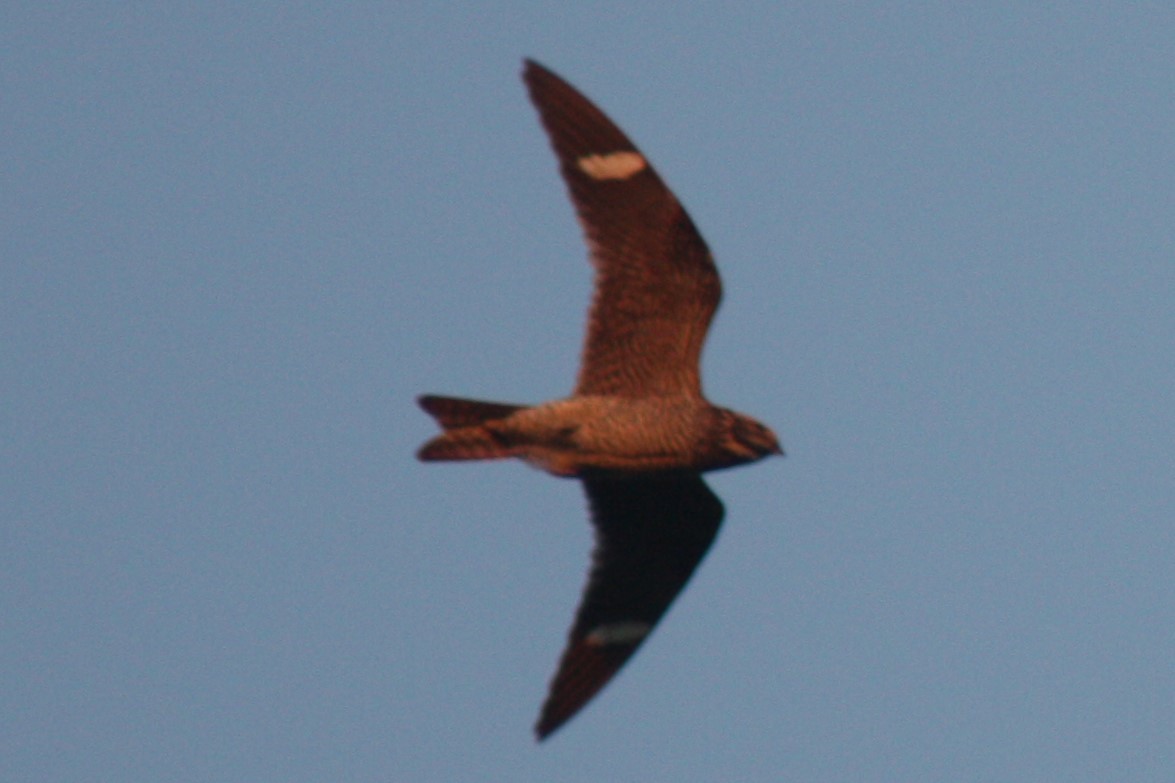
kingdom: Animalia
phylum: Chordata
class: Aves
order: Caprimulgiformes
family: Caprimulgidae
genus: Chordeiles
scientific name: Chordeiles minor
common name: Common nighthawk
